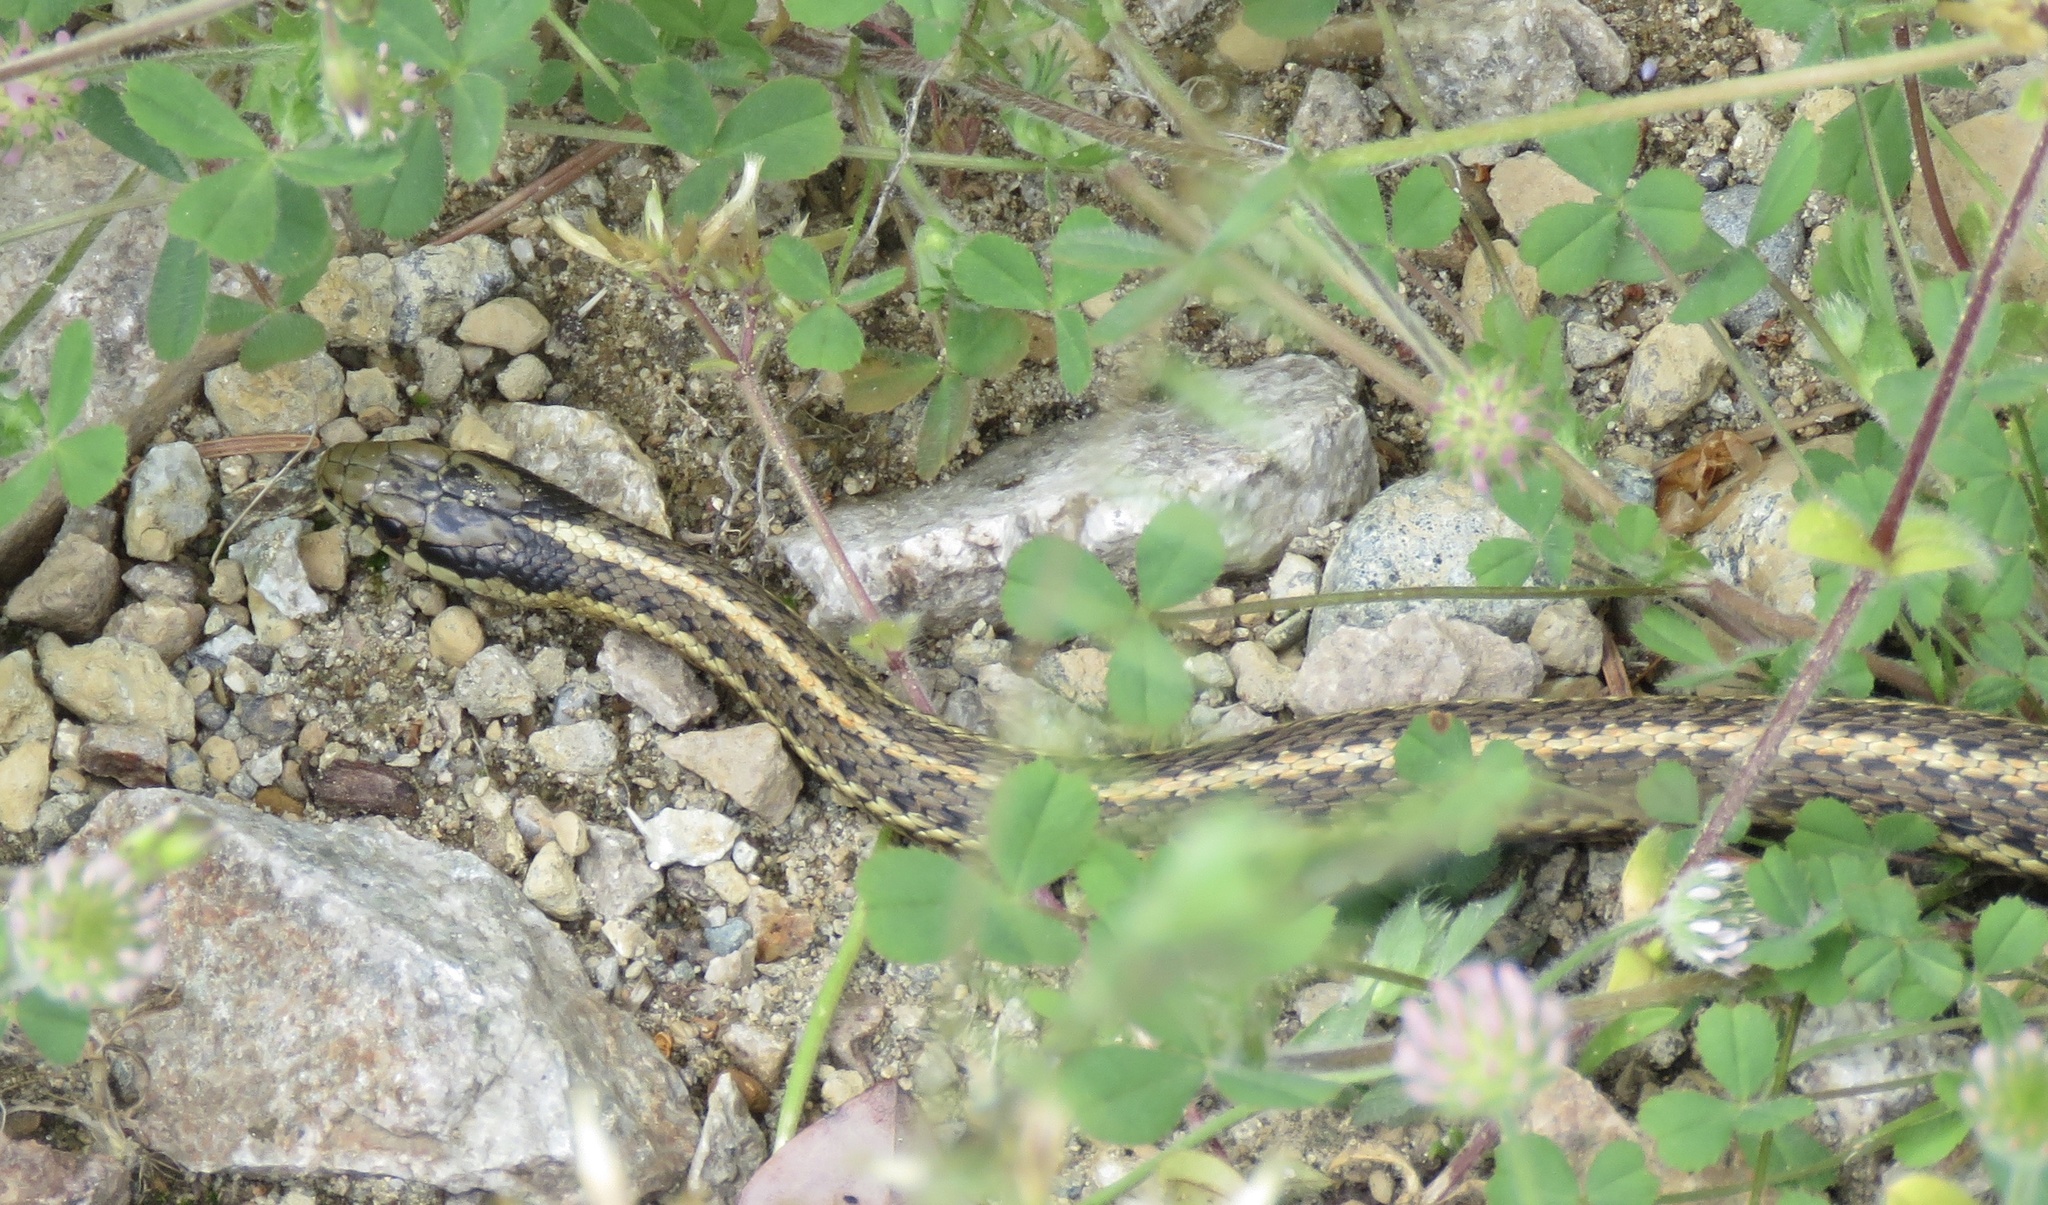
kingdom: Animalia
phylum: Chordata
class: Squamata
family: Colubridae
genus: Thamnophis
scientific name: Thamnophis ordinoides
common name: Northwestern garter snake
